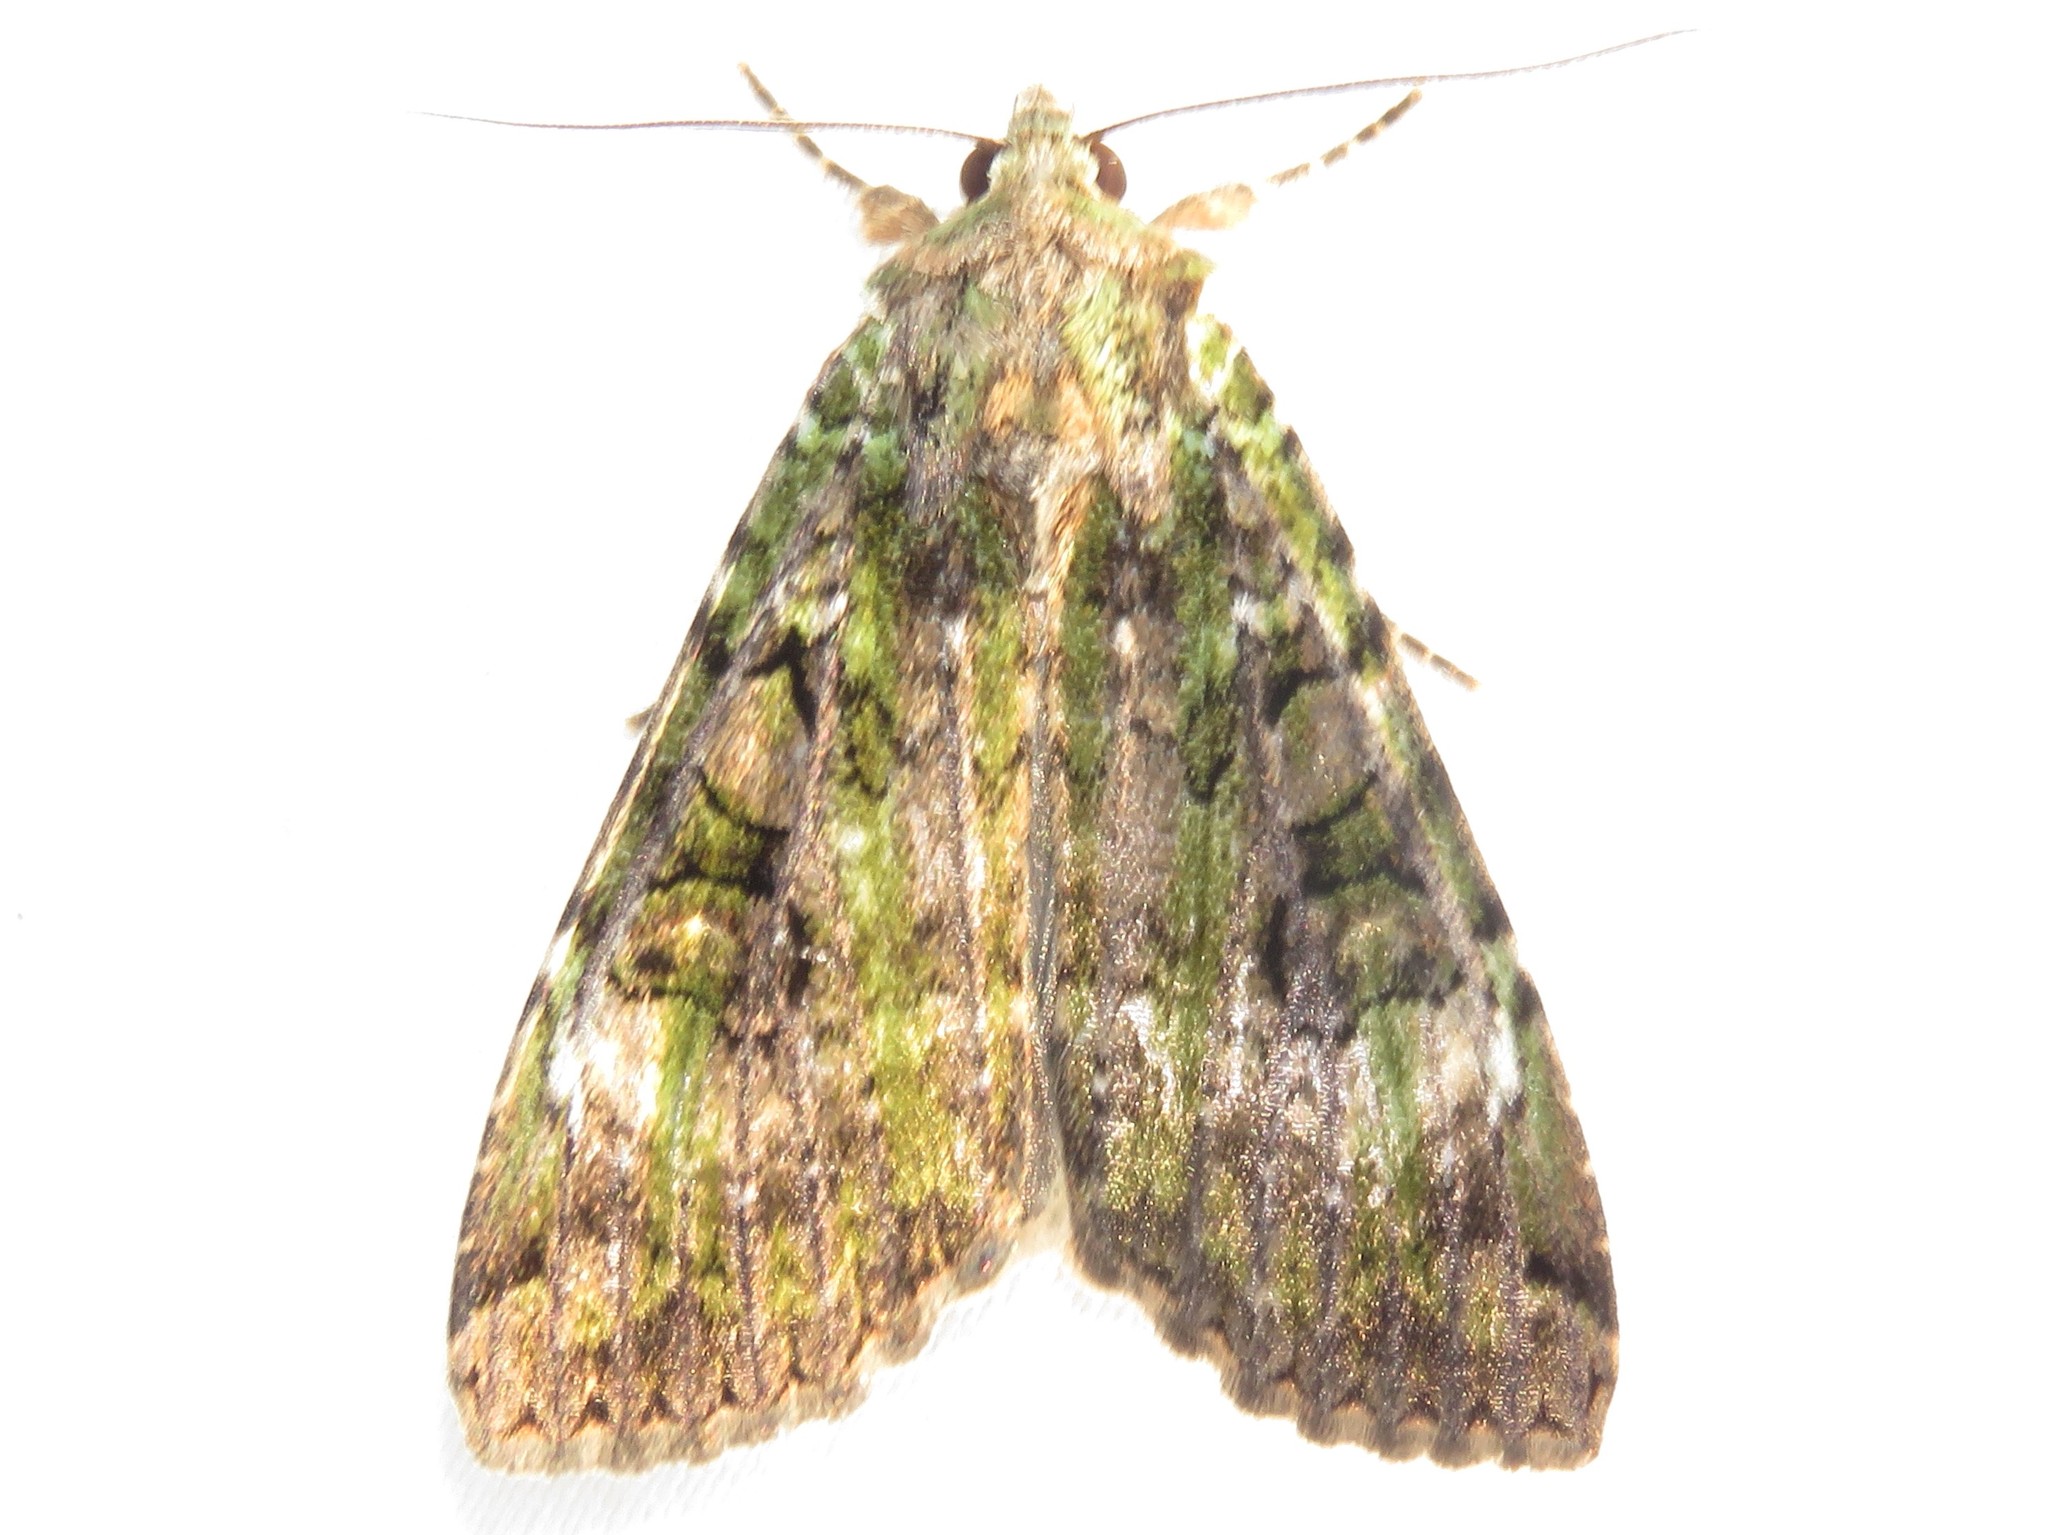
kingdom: Animalia
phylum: Arthropoda
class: Insecta
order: Lepidoptera
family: Noctuidae
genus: Anaplectoides
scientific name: Anaplectoides prasina
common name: Green arches
